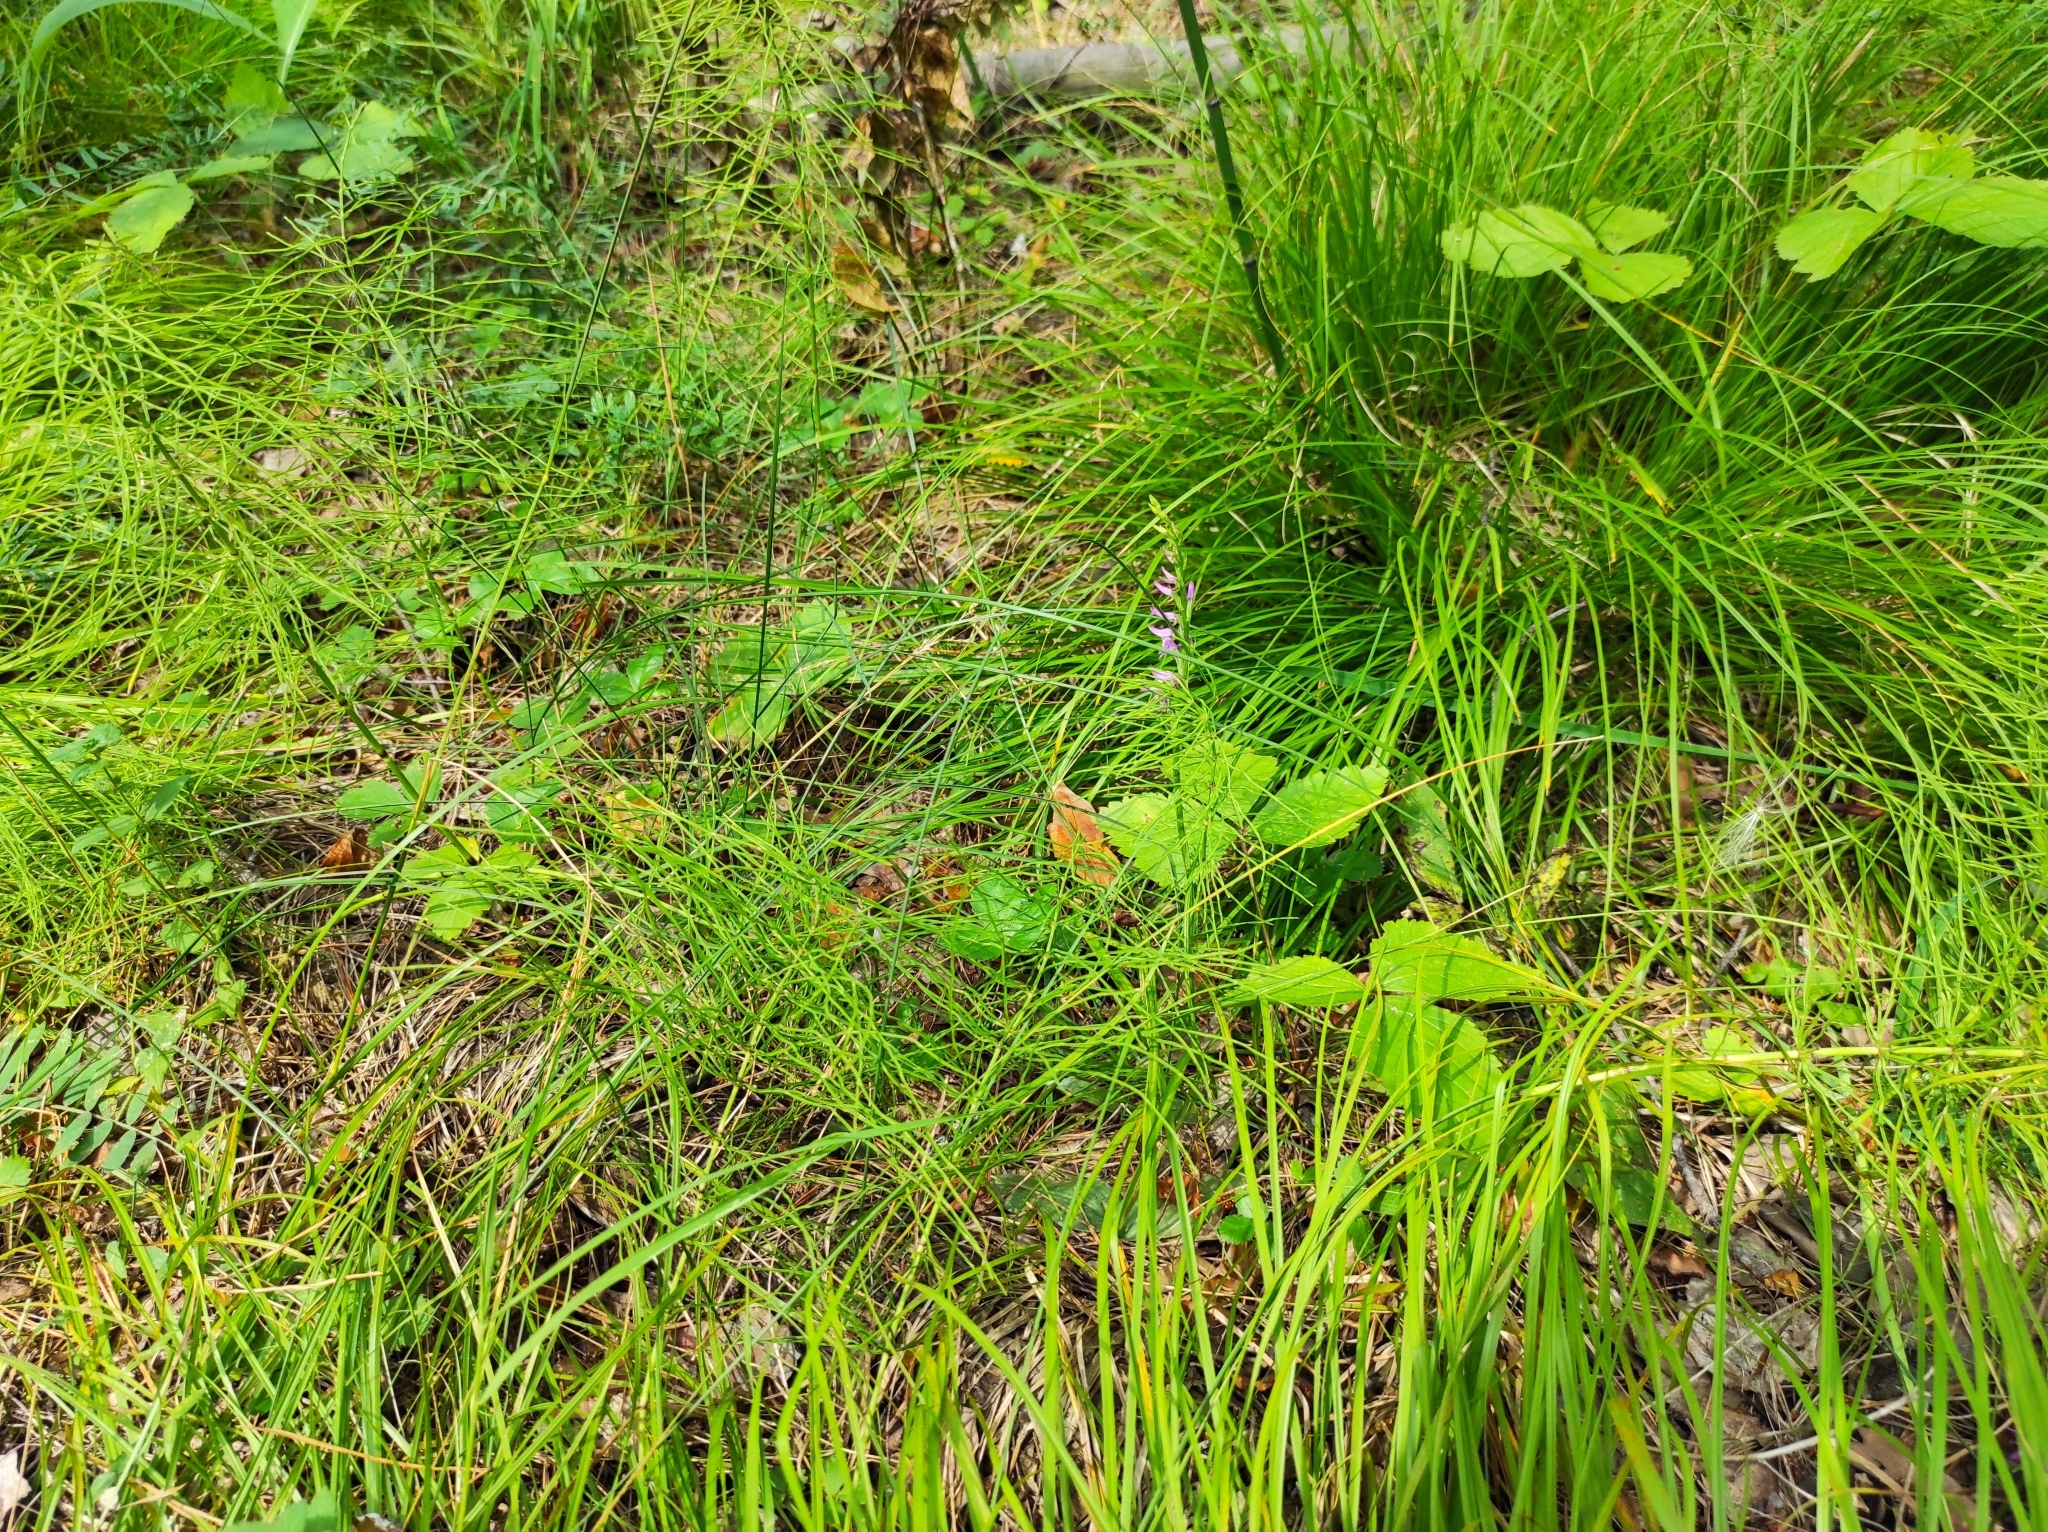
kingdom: Plantae
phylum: Tracheophyta
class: Liliopsida
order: Asparagales
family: Orchidaceae
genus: Hemipilia
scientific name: Hemipilia cucullata
